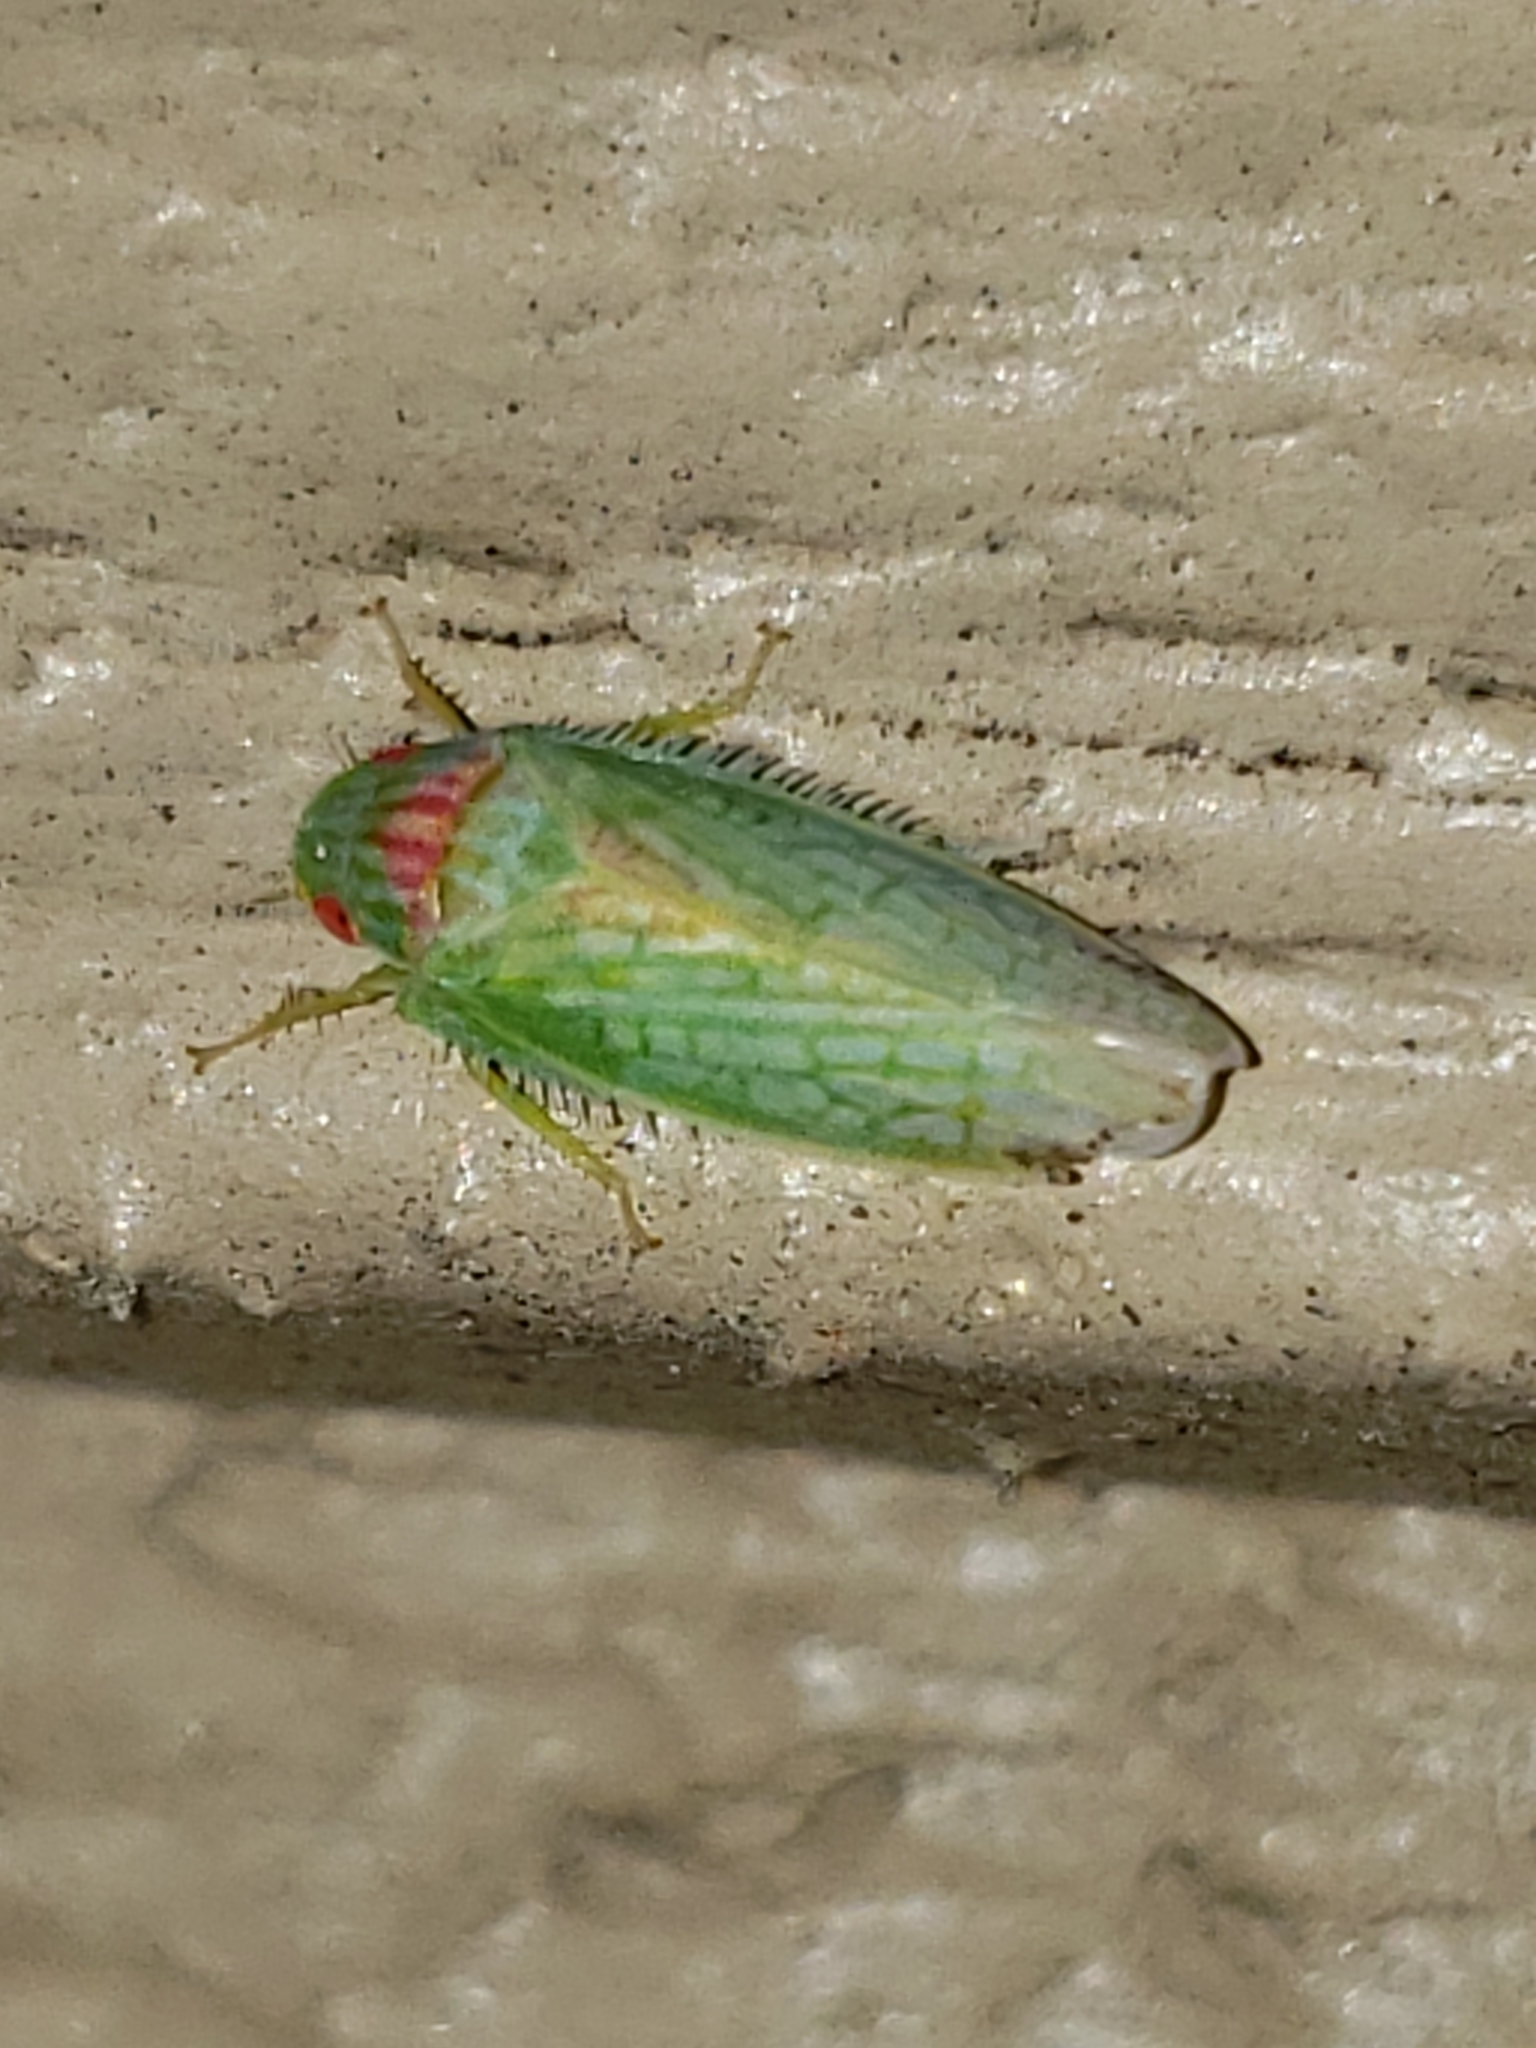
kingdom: Animalia
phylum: Arthropoda
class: Insecta
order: Hemiptera
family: Cicadellidae
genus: Gyponana
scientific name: Gyponana octolineata
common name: Eight-lined leafhopper
